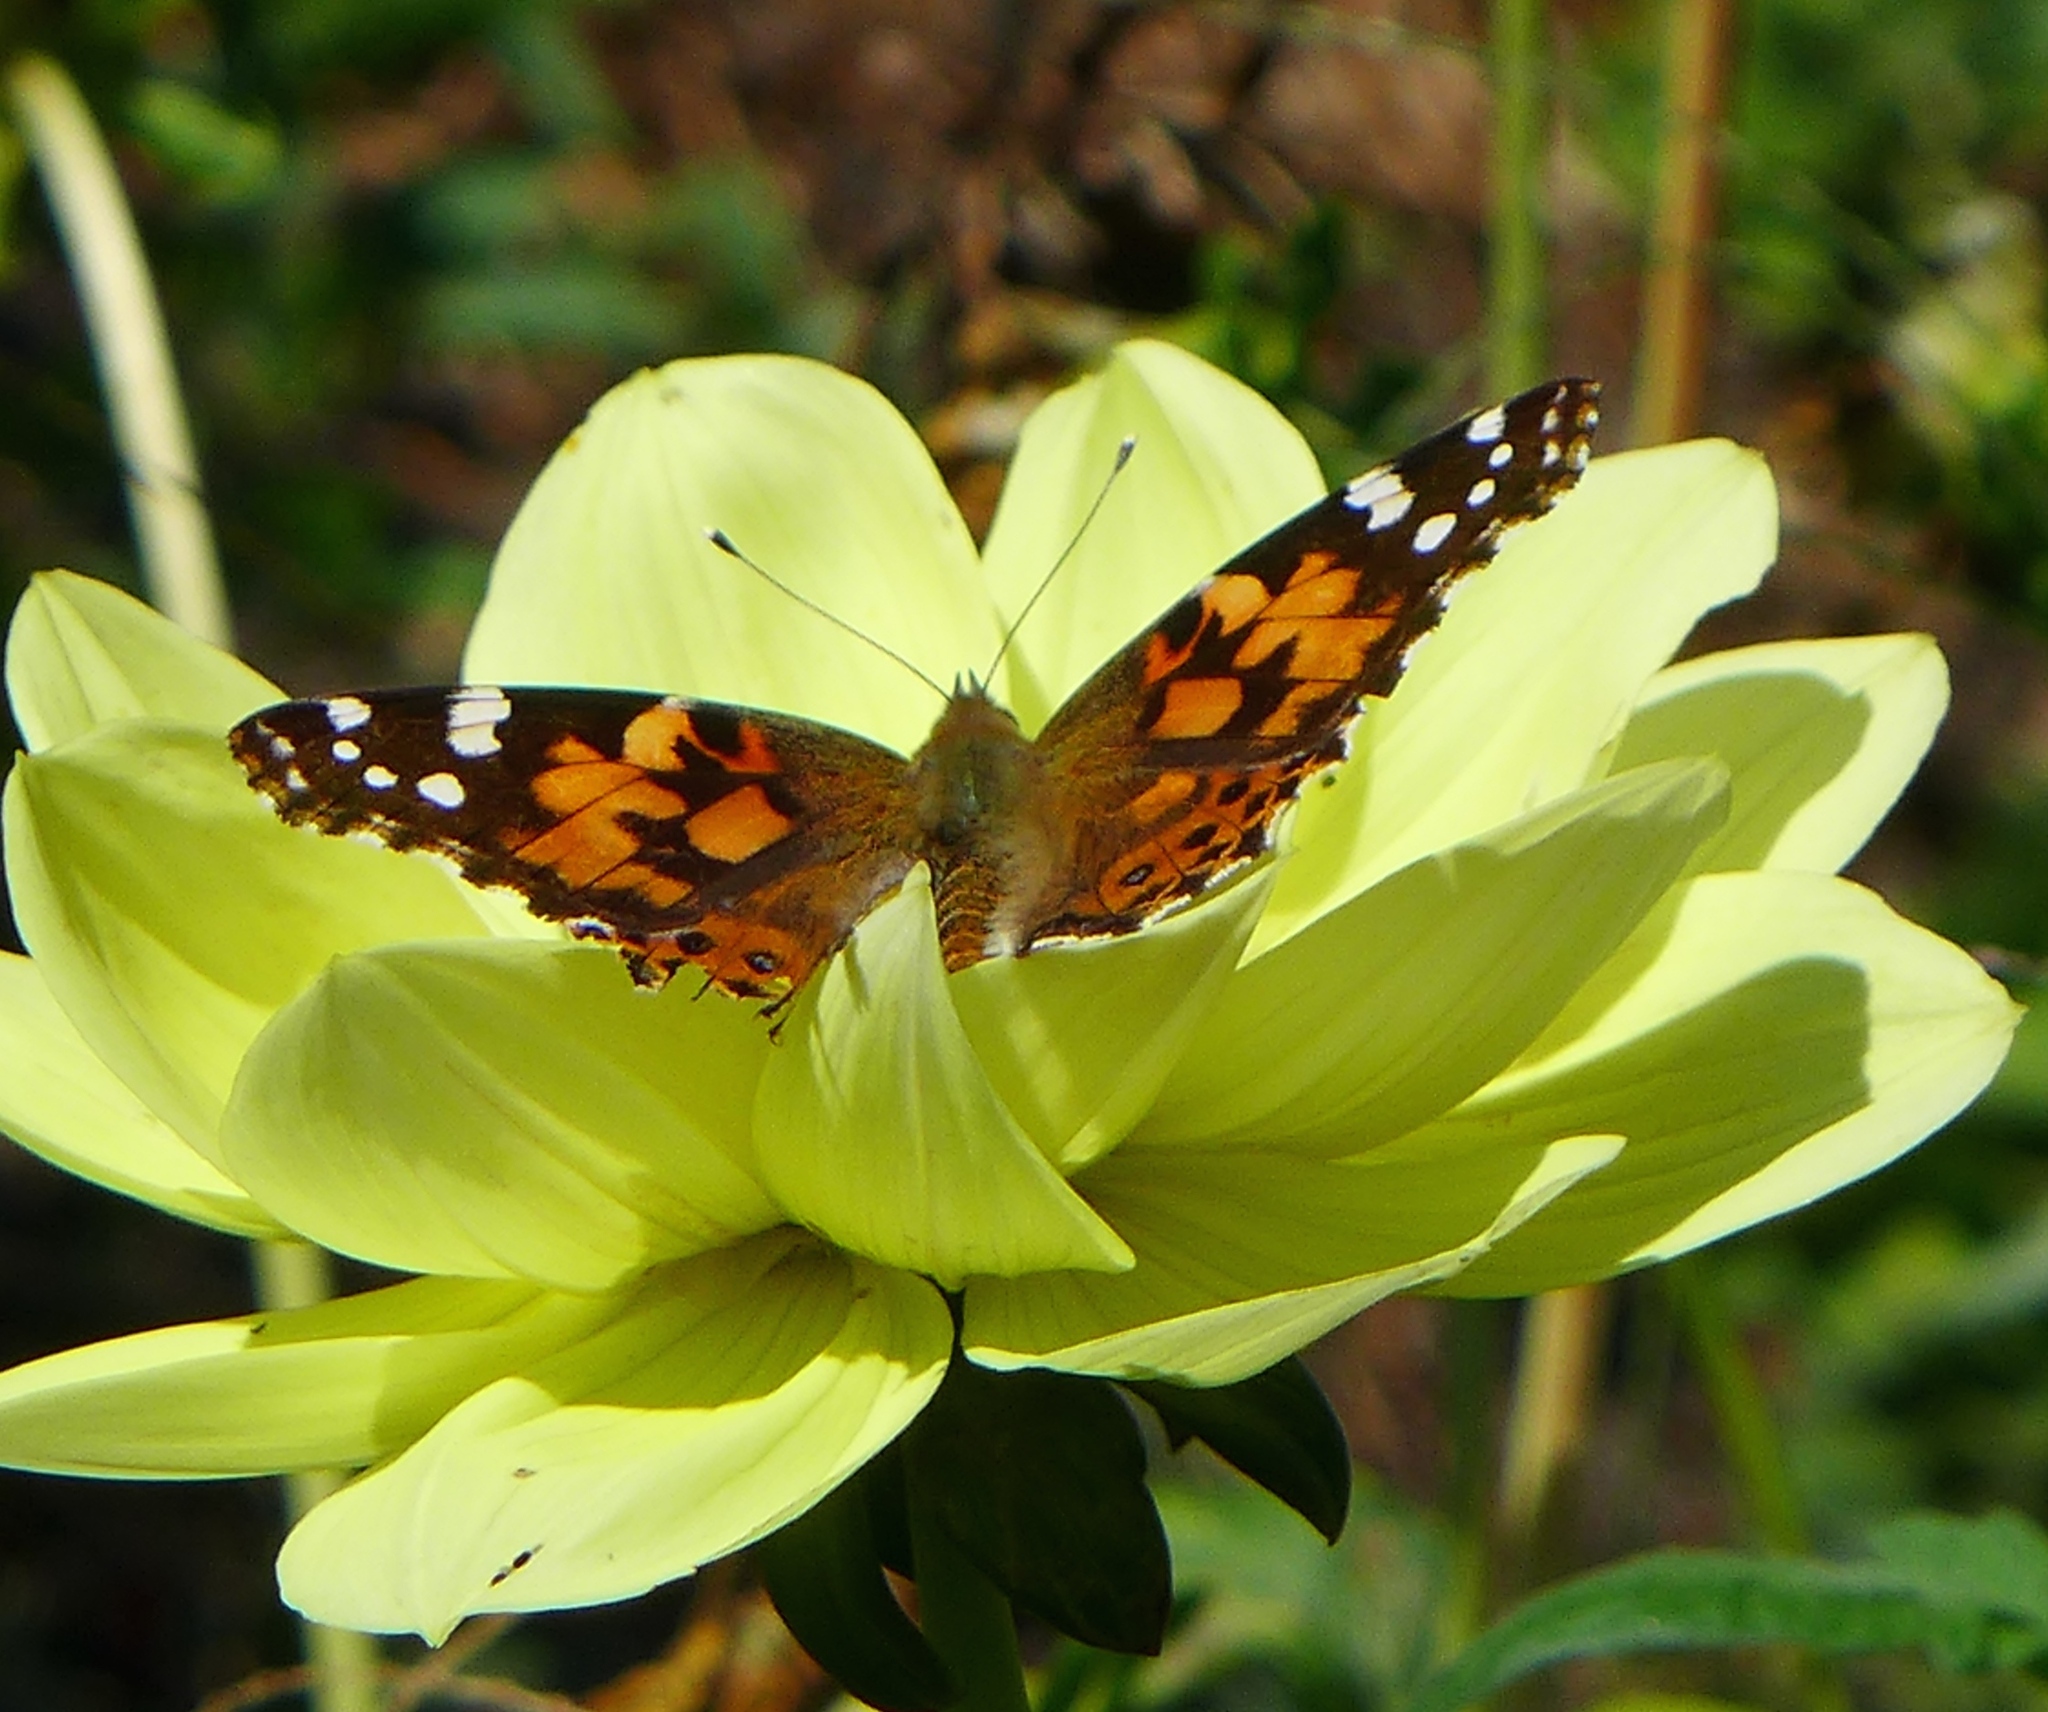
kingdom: Animalia
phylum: Arthropoda
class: Insecta
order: Lepidoptera
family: Nymphalidae
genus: Vanessa
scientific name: Vanessa cardui
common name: Painted lady
